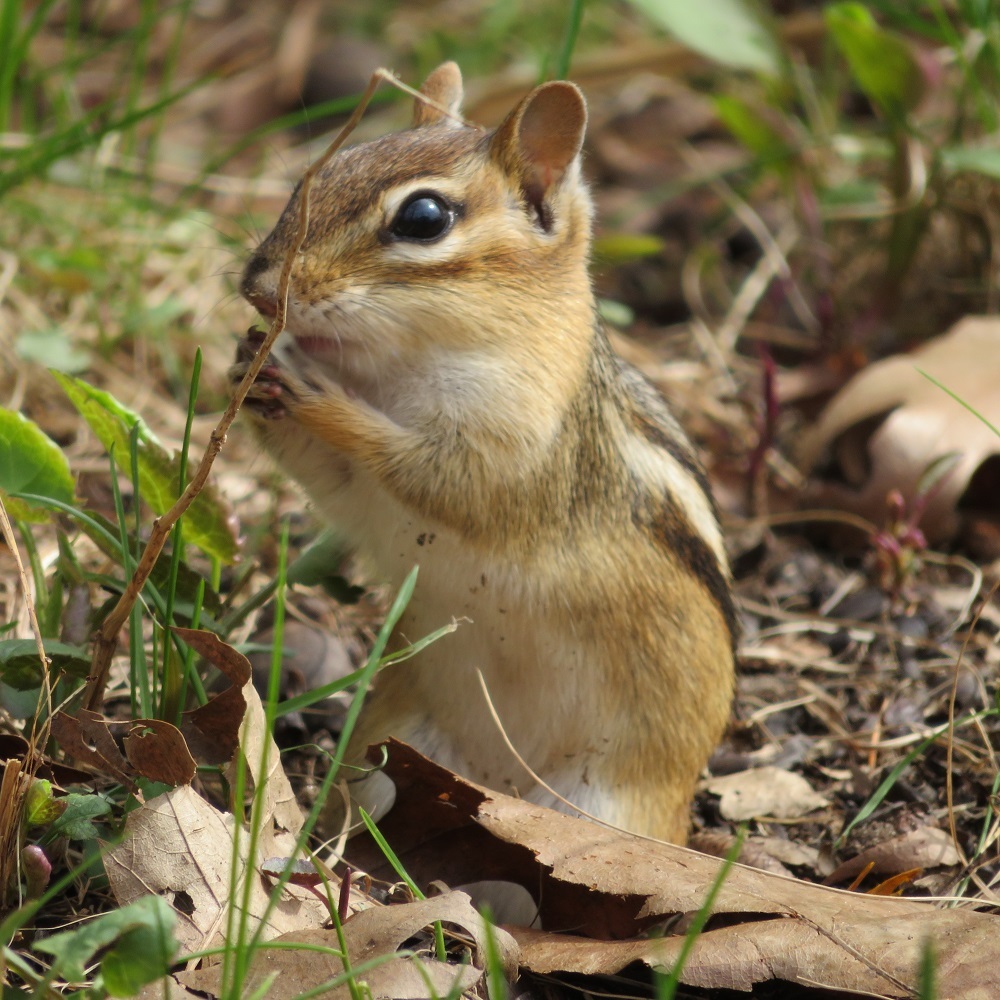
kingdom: Animalia
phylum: Chordata
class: Mammalia
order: Rodentia
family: Sciuridae
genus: Tamias
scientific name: Tamias striatus
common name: Eastern chipmunk
